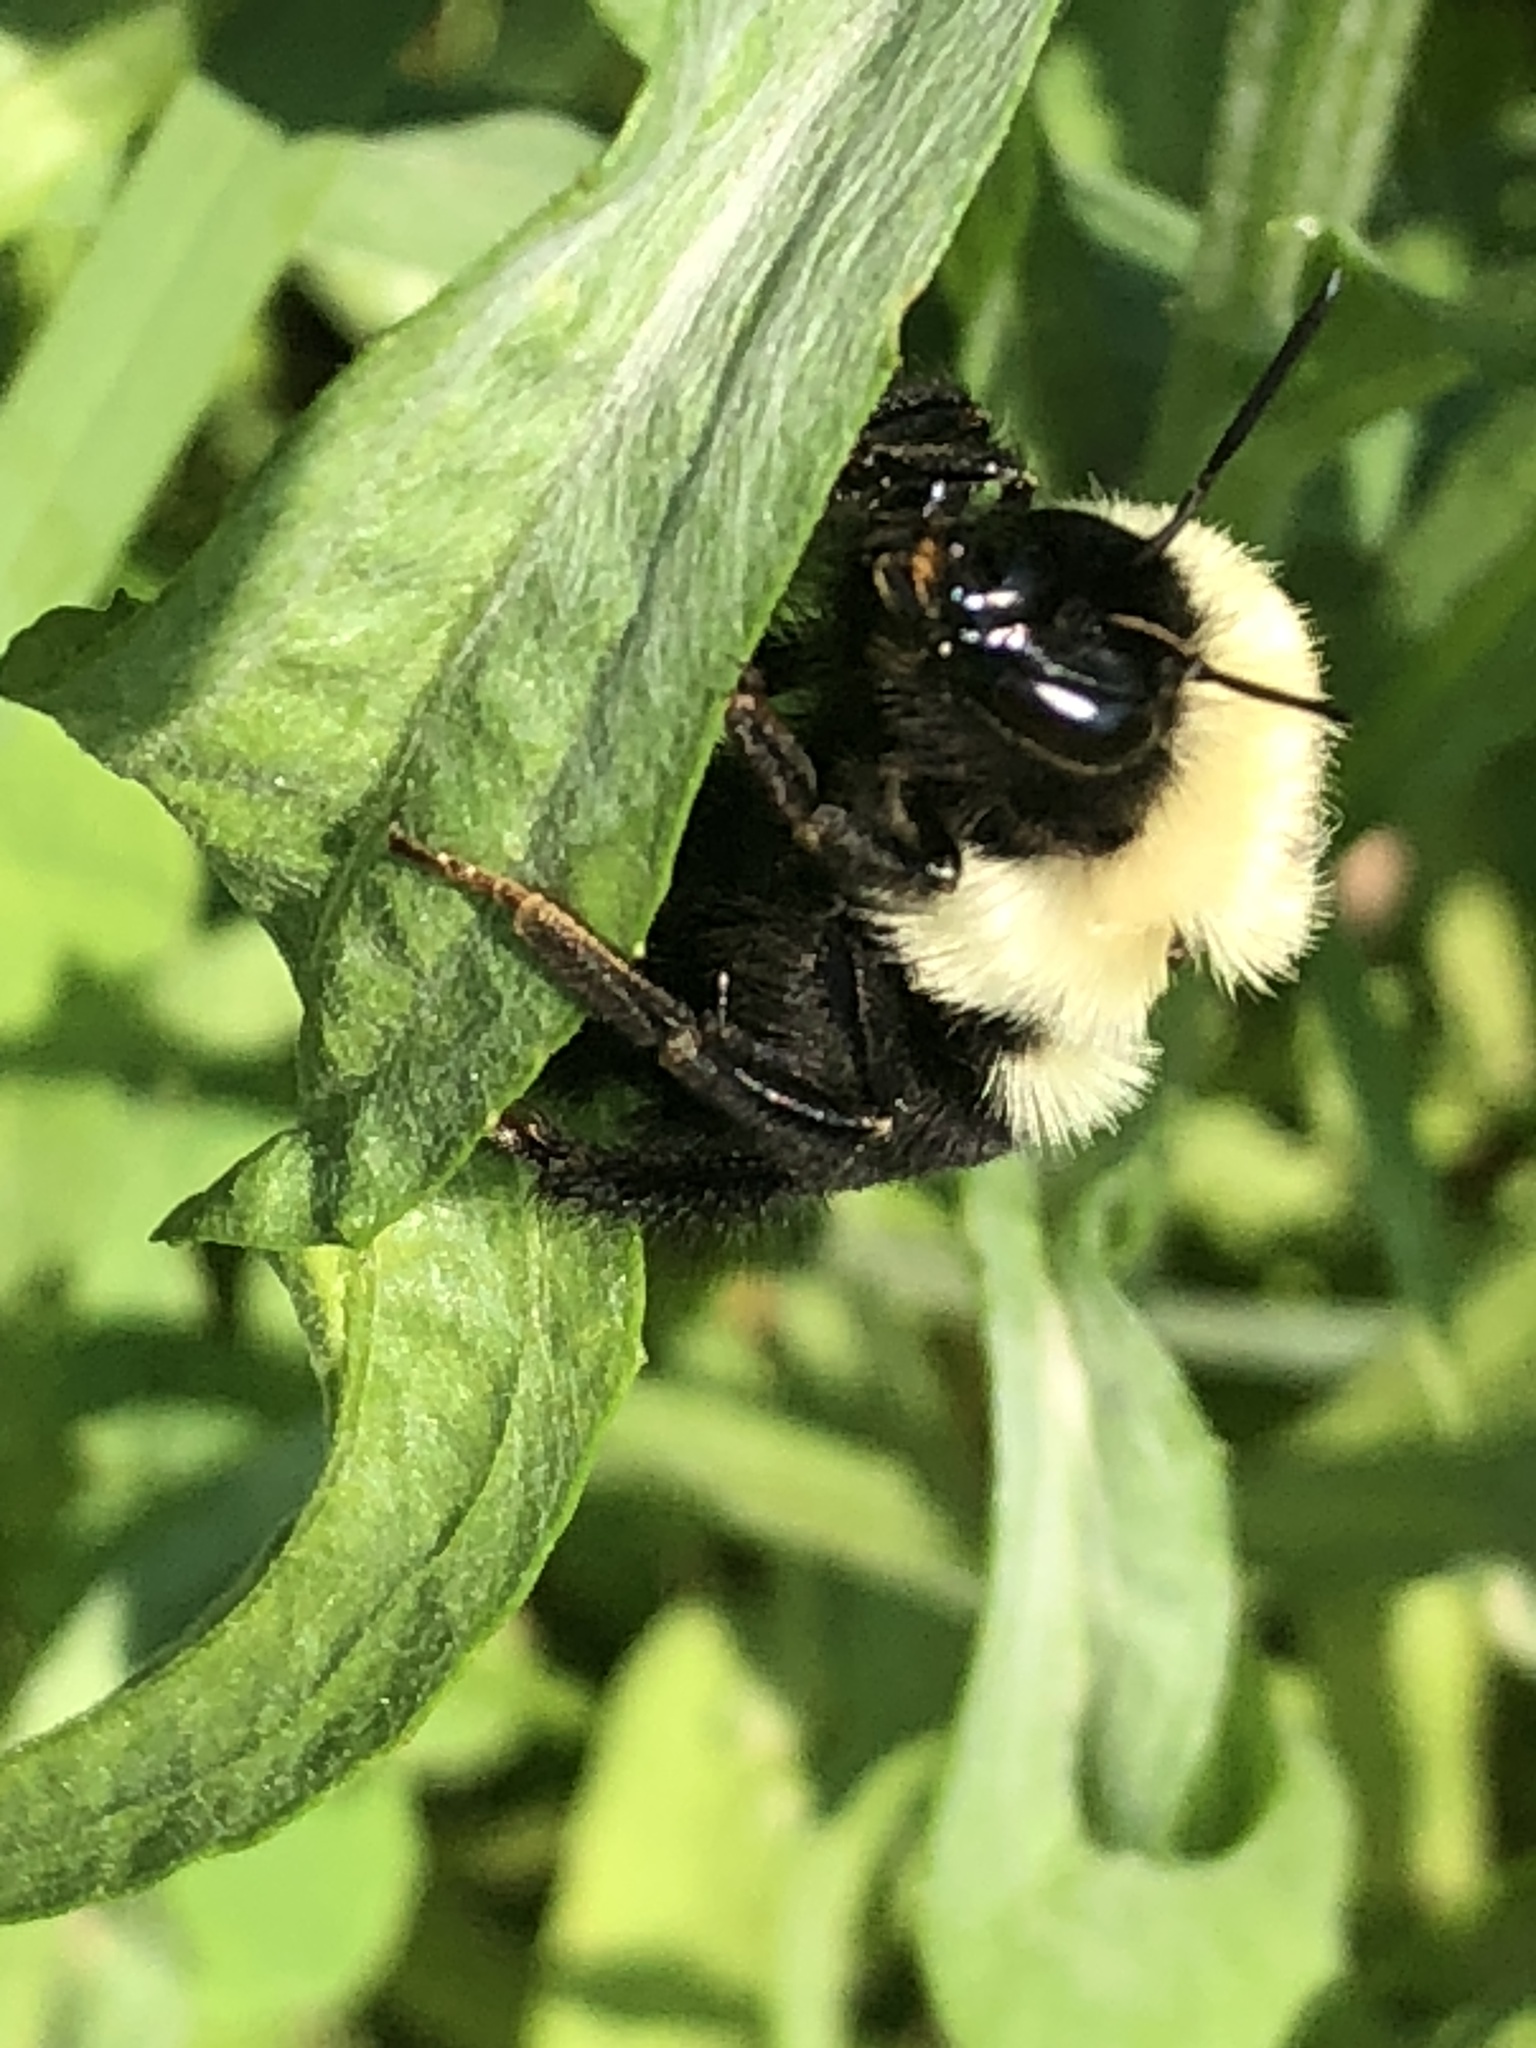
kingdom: Animalia
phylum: Arthropoda
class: Insecta
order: Hymenoptera
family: Apidae
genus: Bombus
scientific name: Bombus bimaculatus
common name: Two-spotted bumble bee
